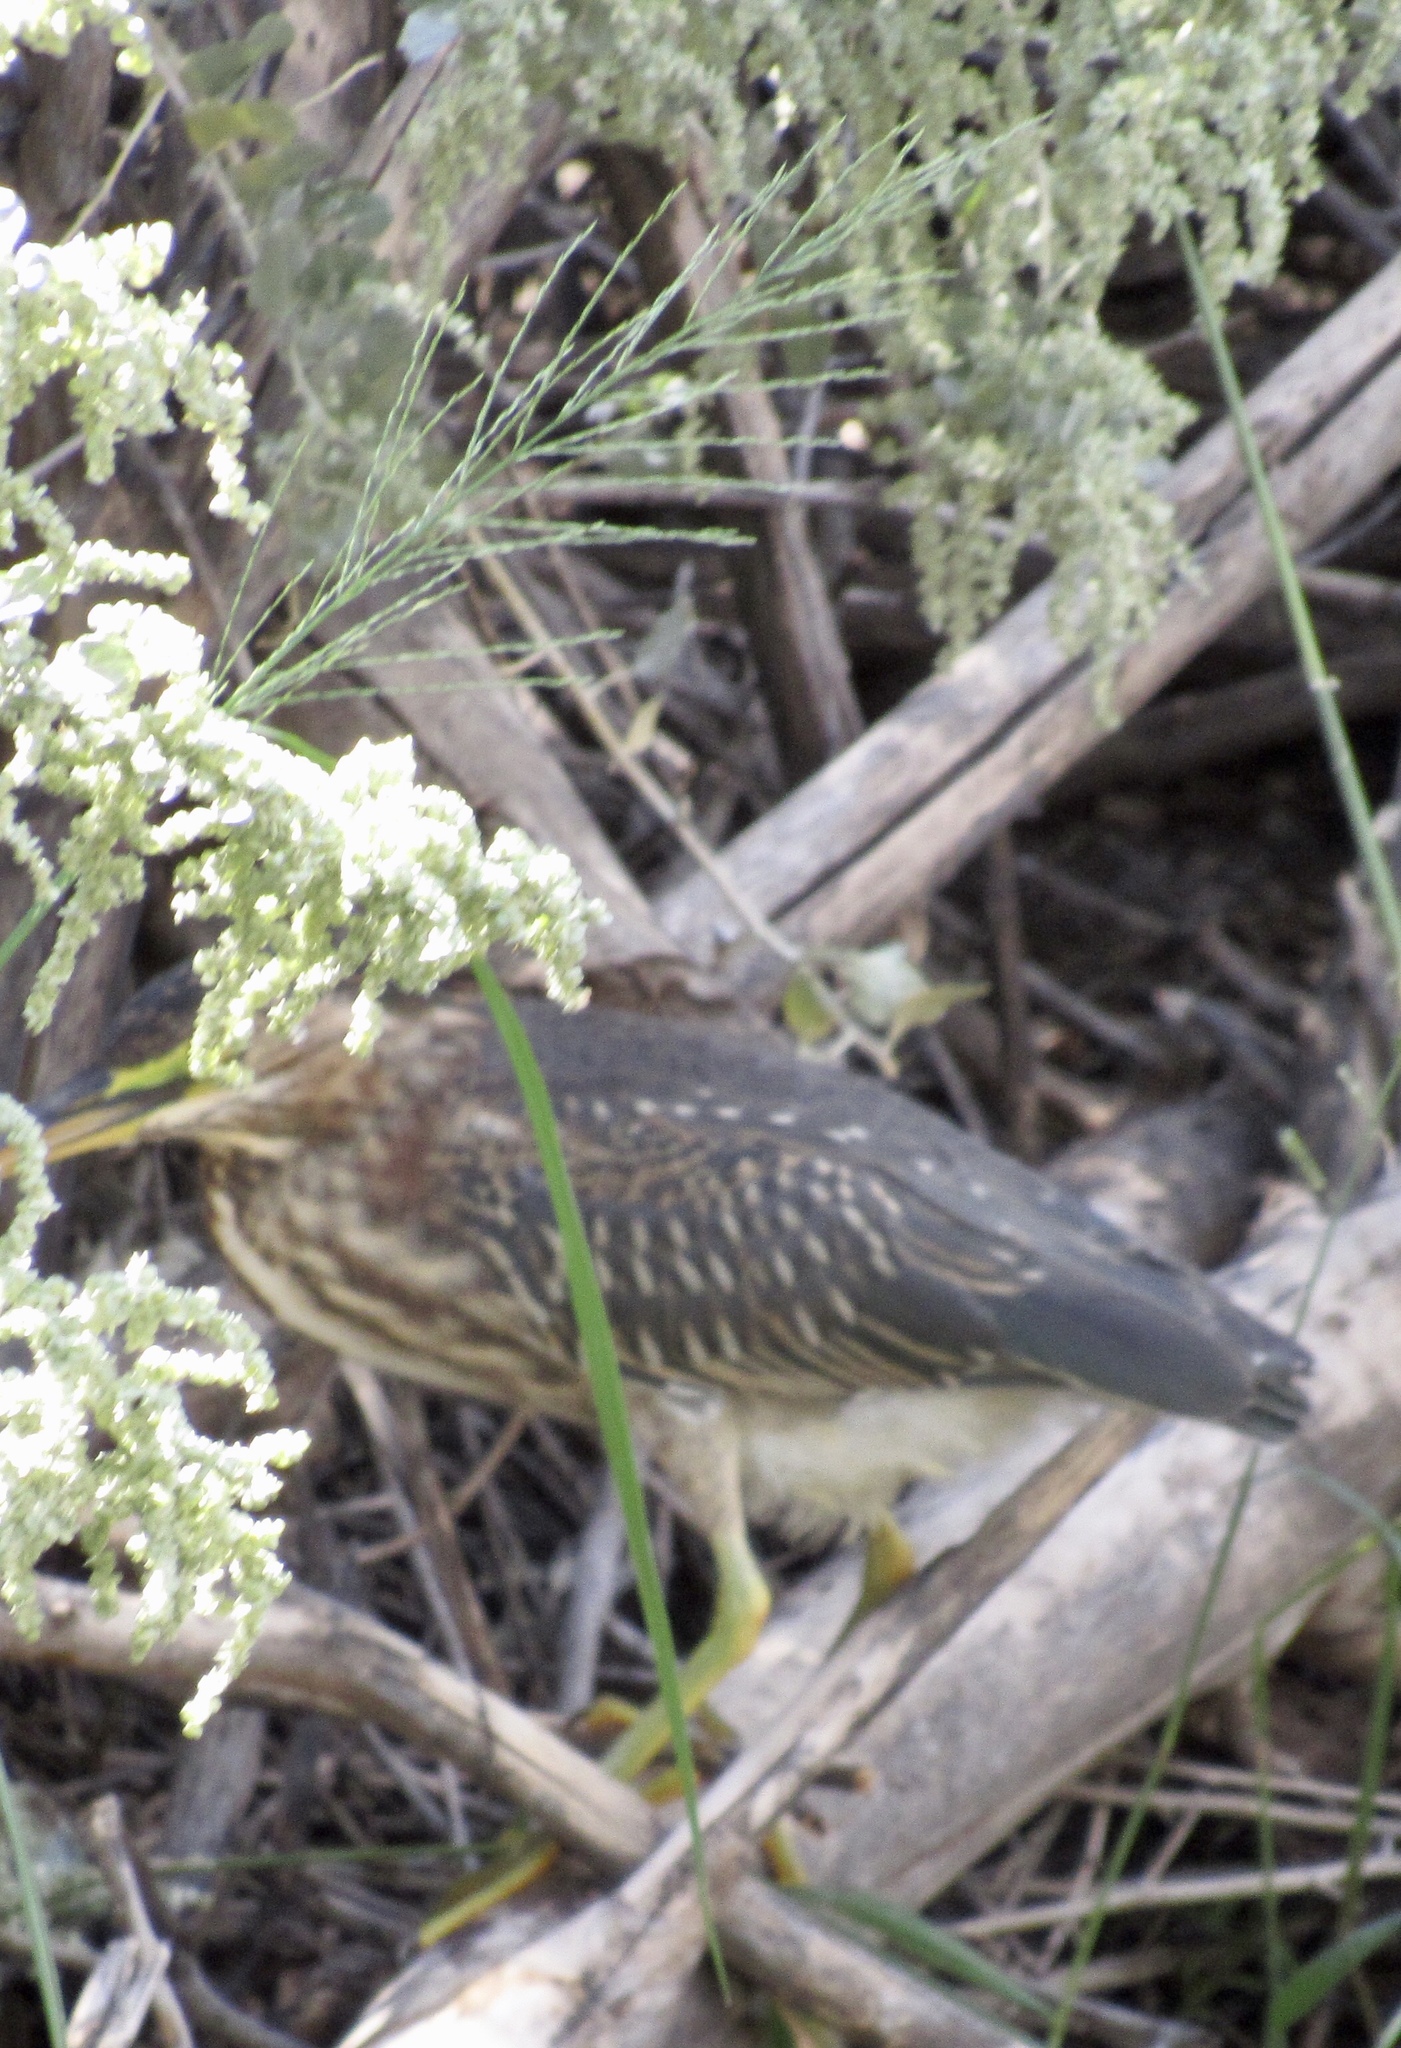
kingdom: Animalia
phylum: Chordata
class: Aves
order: Pelecaniformes
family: Ardeidae
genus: Butorides
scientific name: Butorides virescens
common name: Green heron
